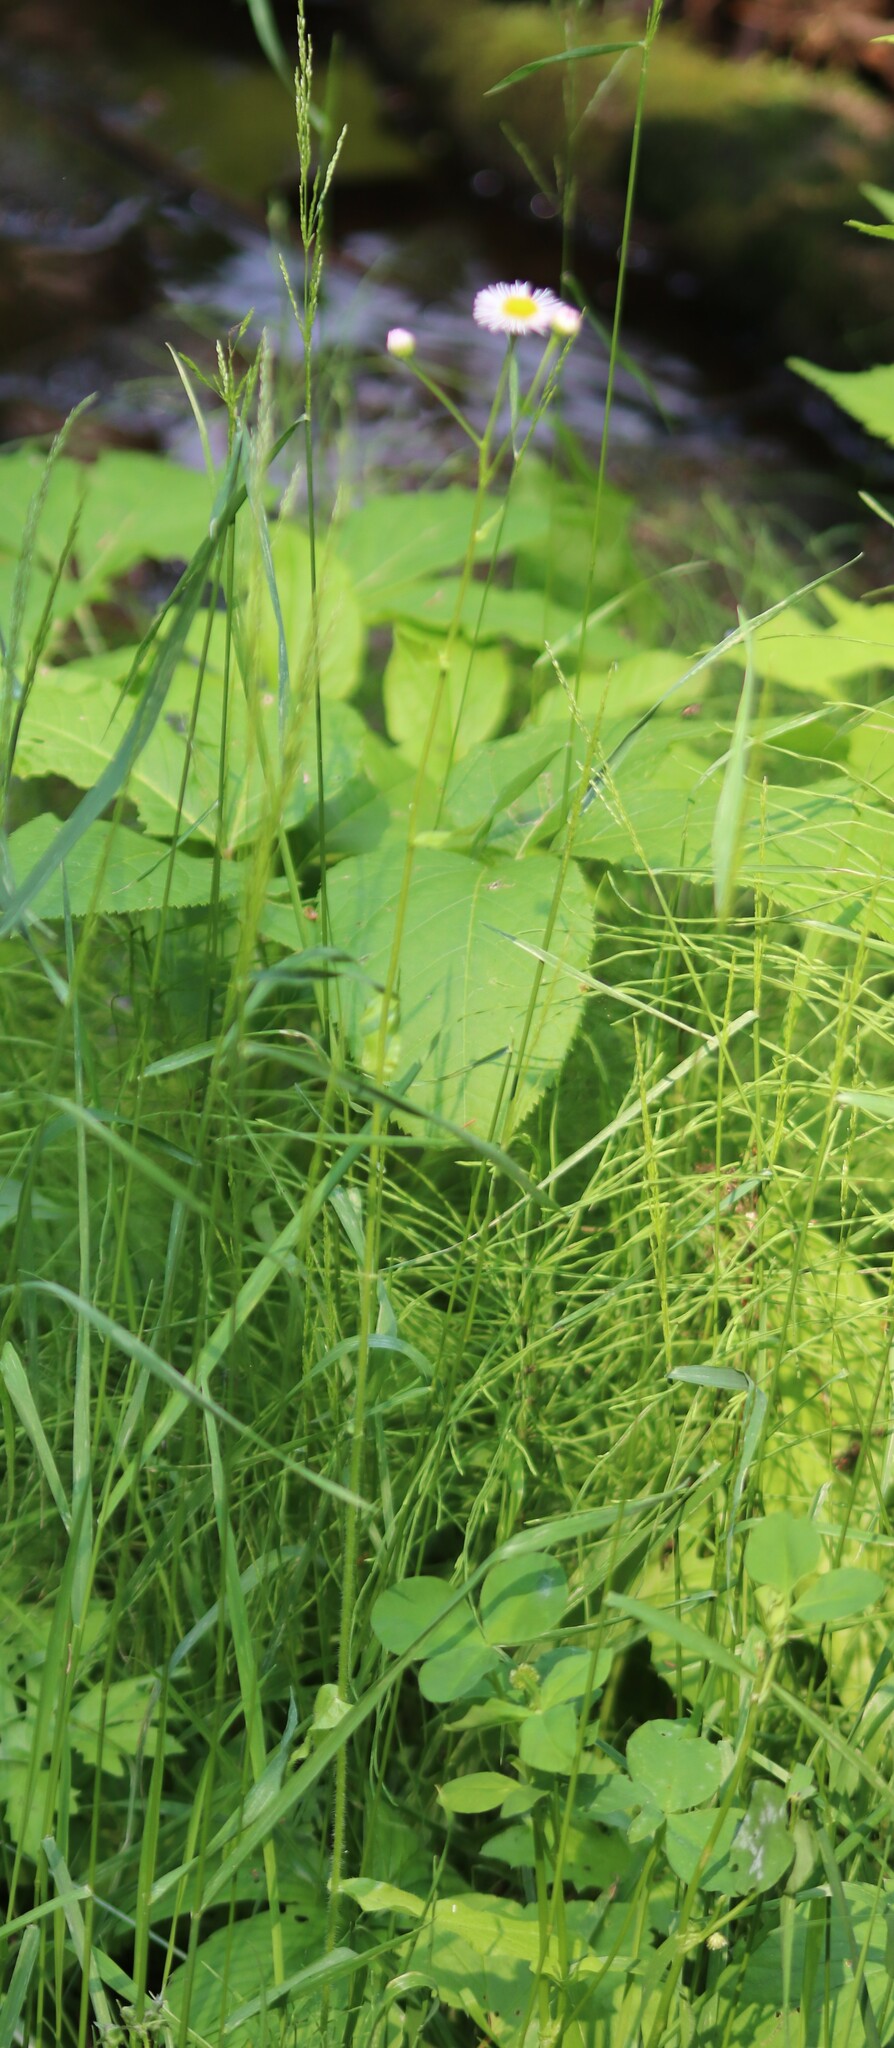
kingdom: Plantae
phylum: Tracheophyta
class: Magnoliopsida
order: Asterales
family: Asteraceae
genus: Erigeron
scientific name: Erigeron philadelphicus
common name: Robin's-plantain
